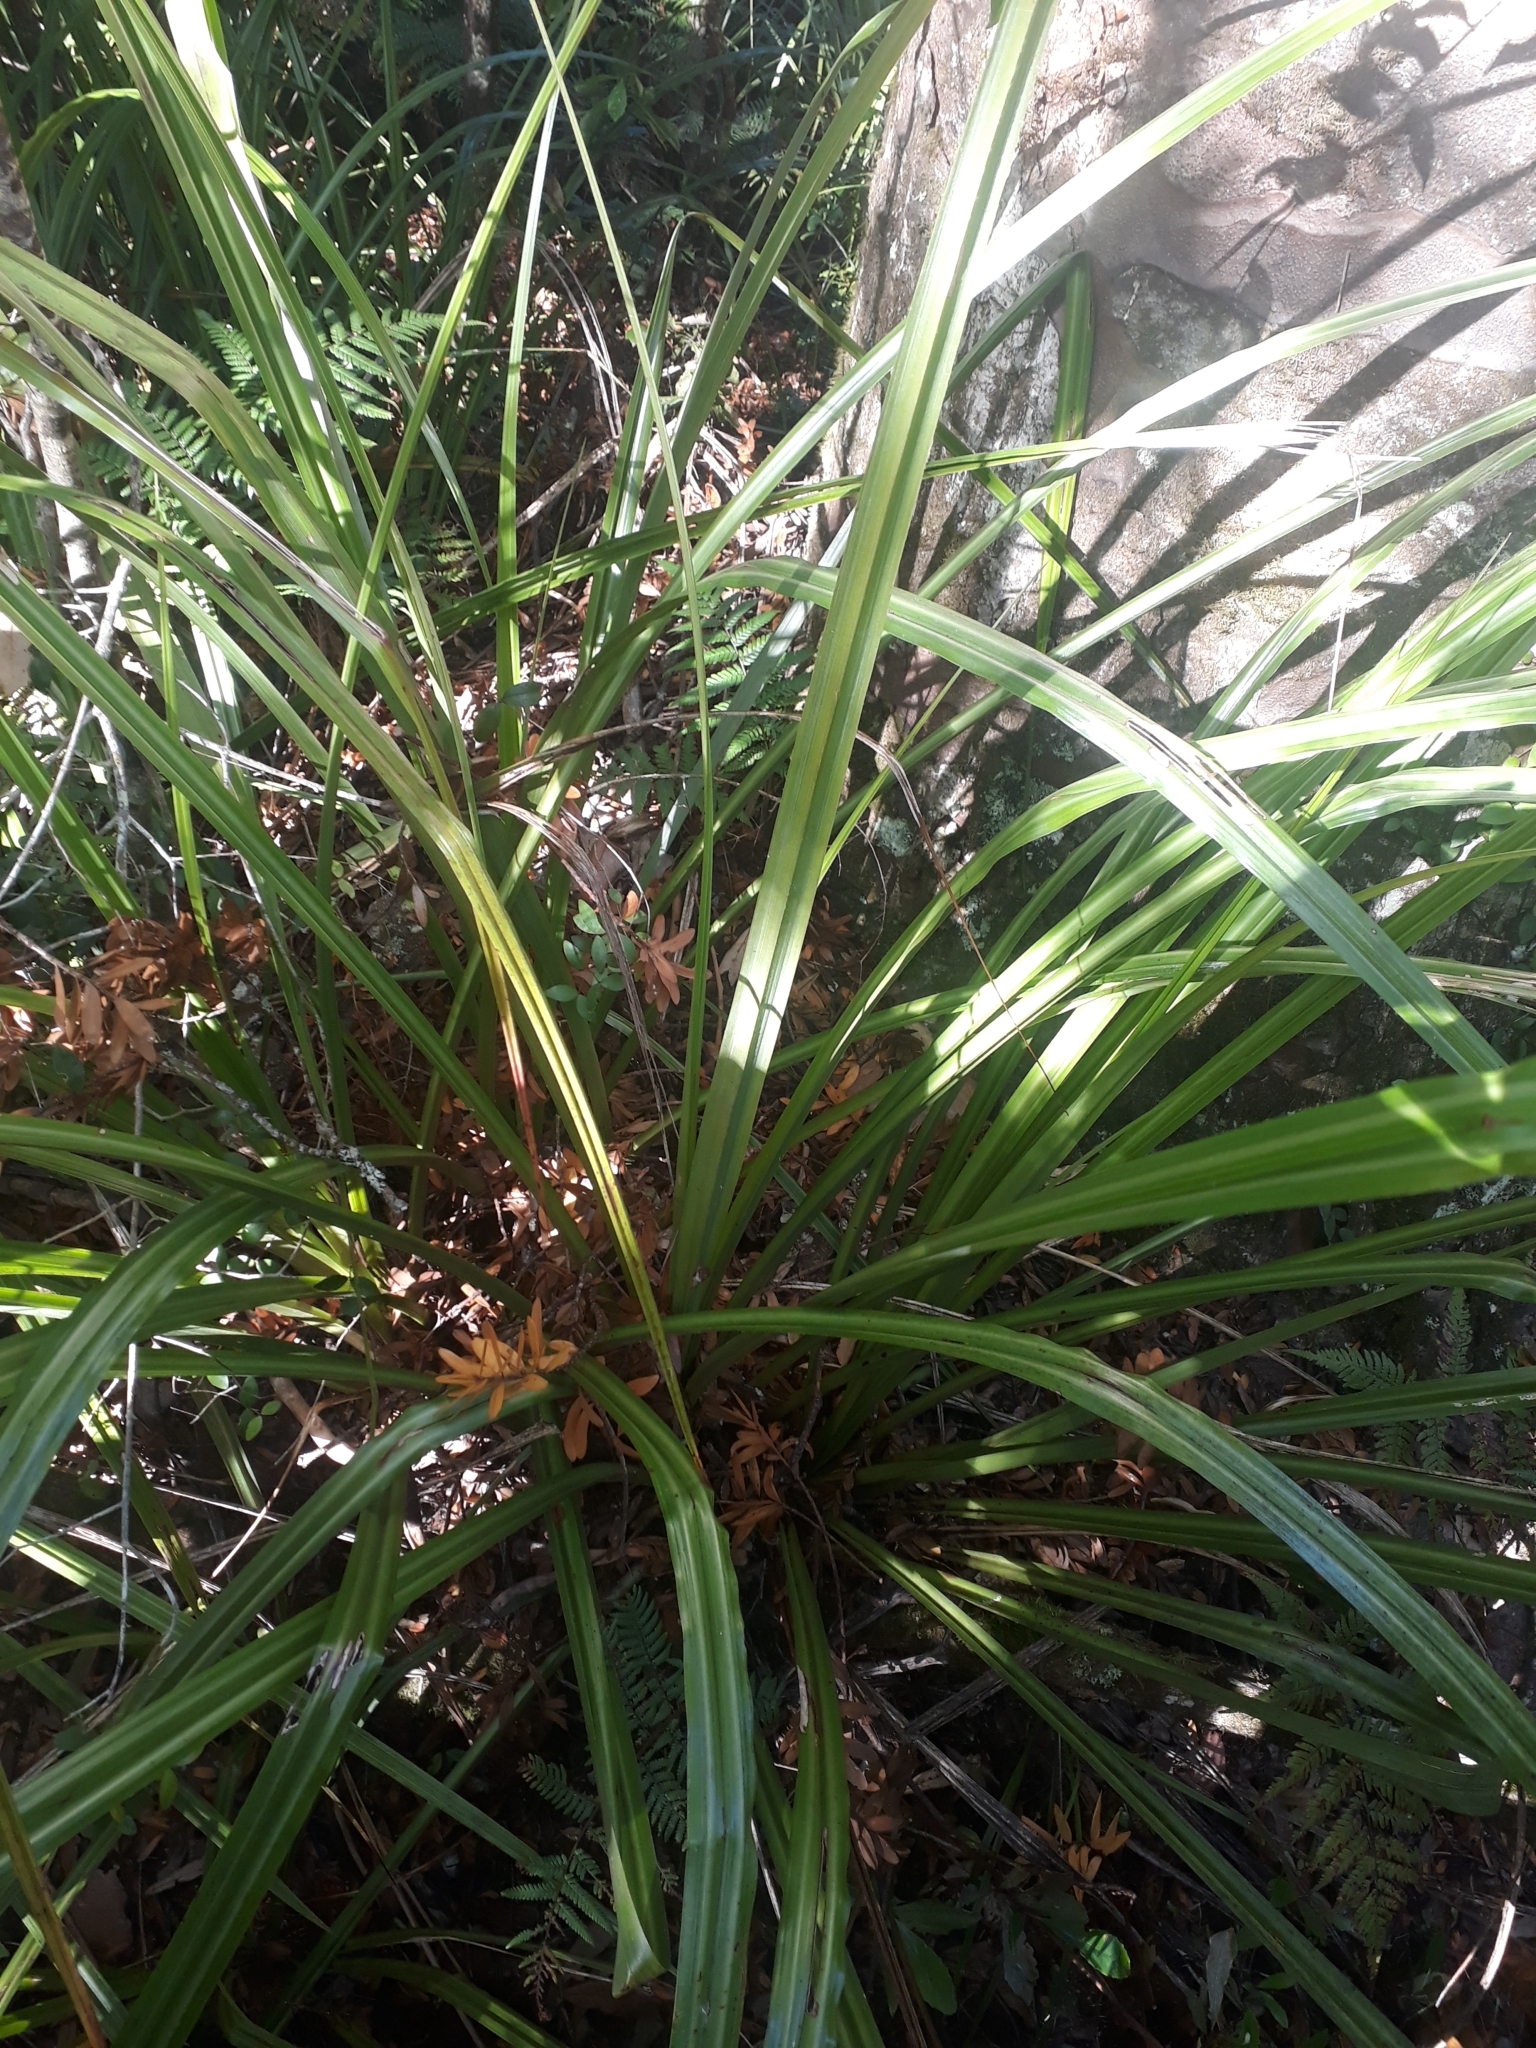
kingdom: Plantae
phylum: Tracheophyta
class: Liliopsida
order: Asparagales
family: Asteliaceae
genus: Astelia
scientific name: Astelia trinervia
